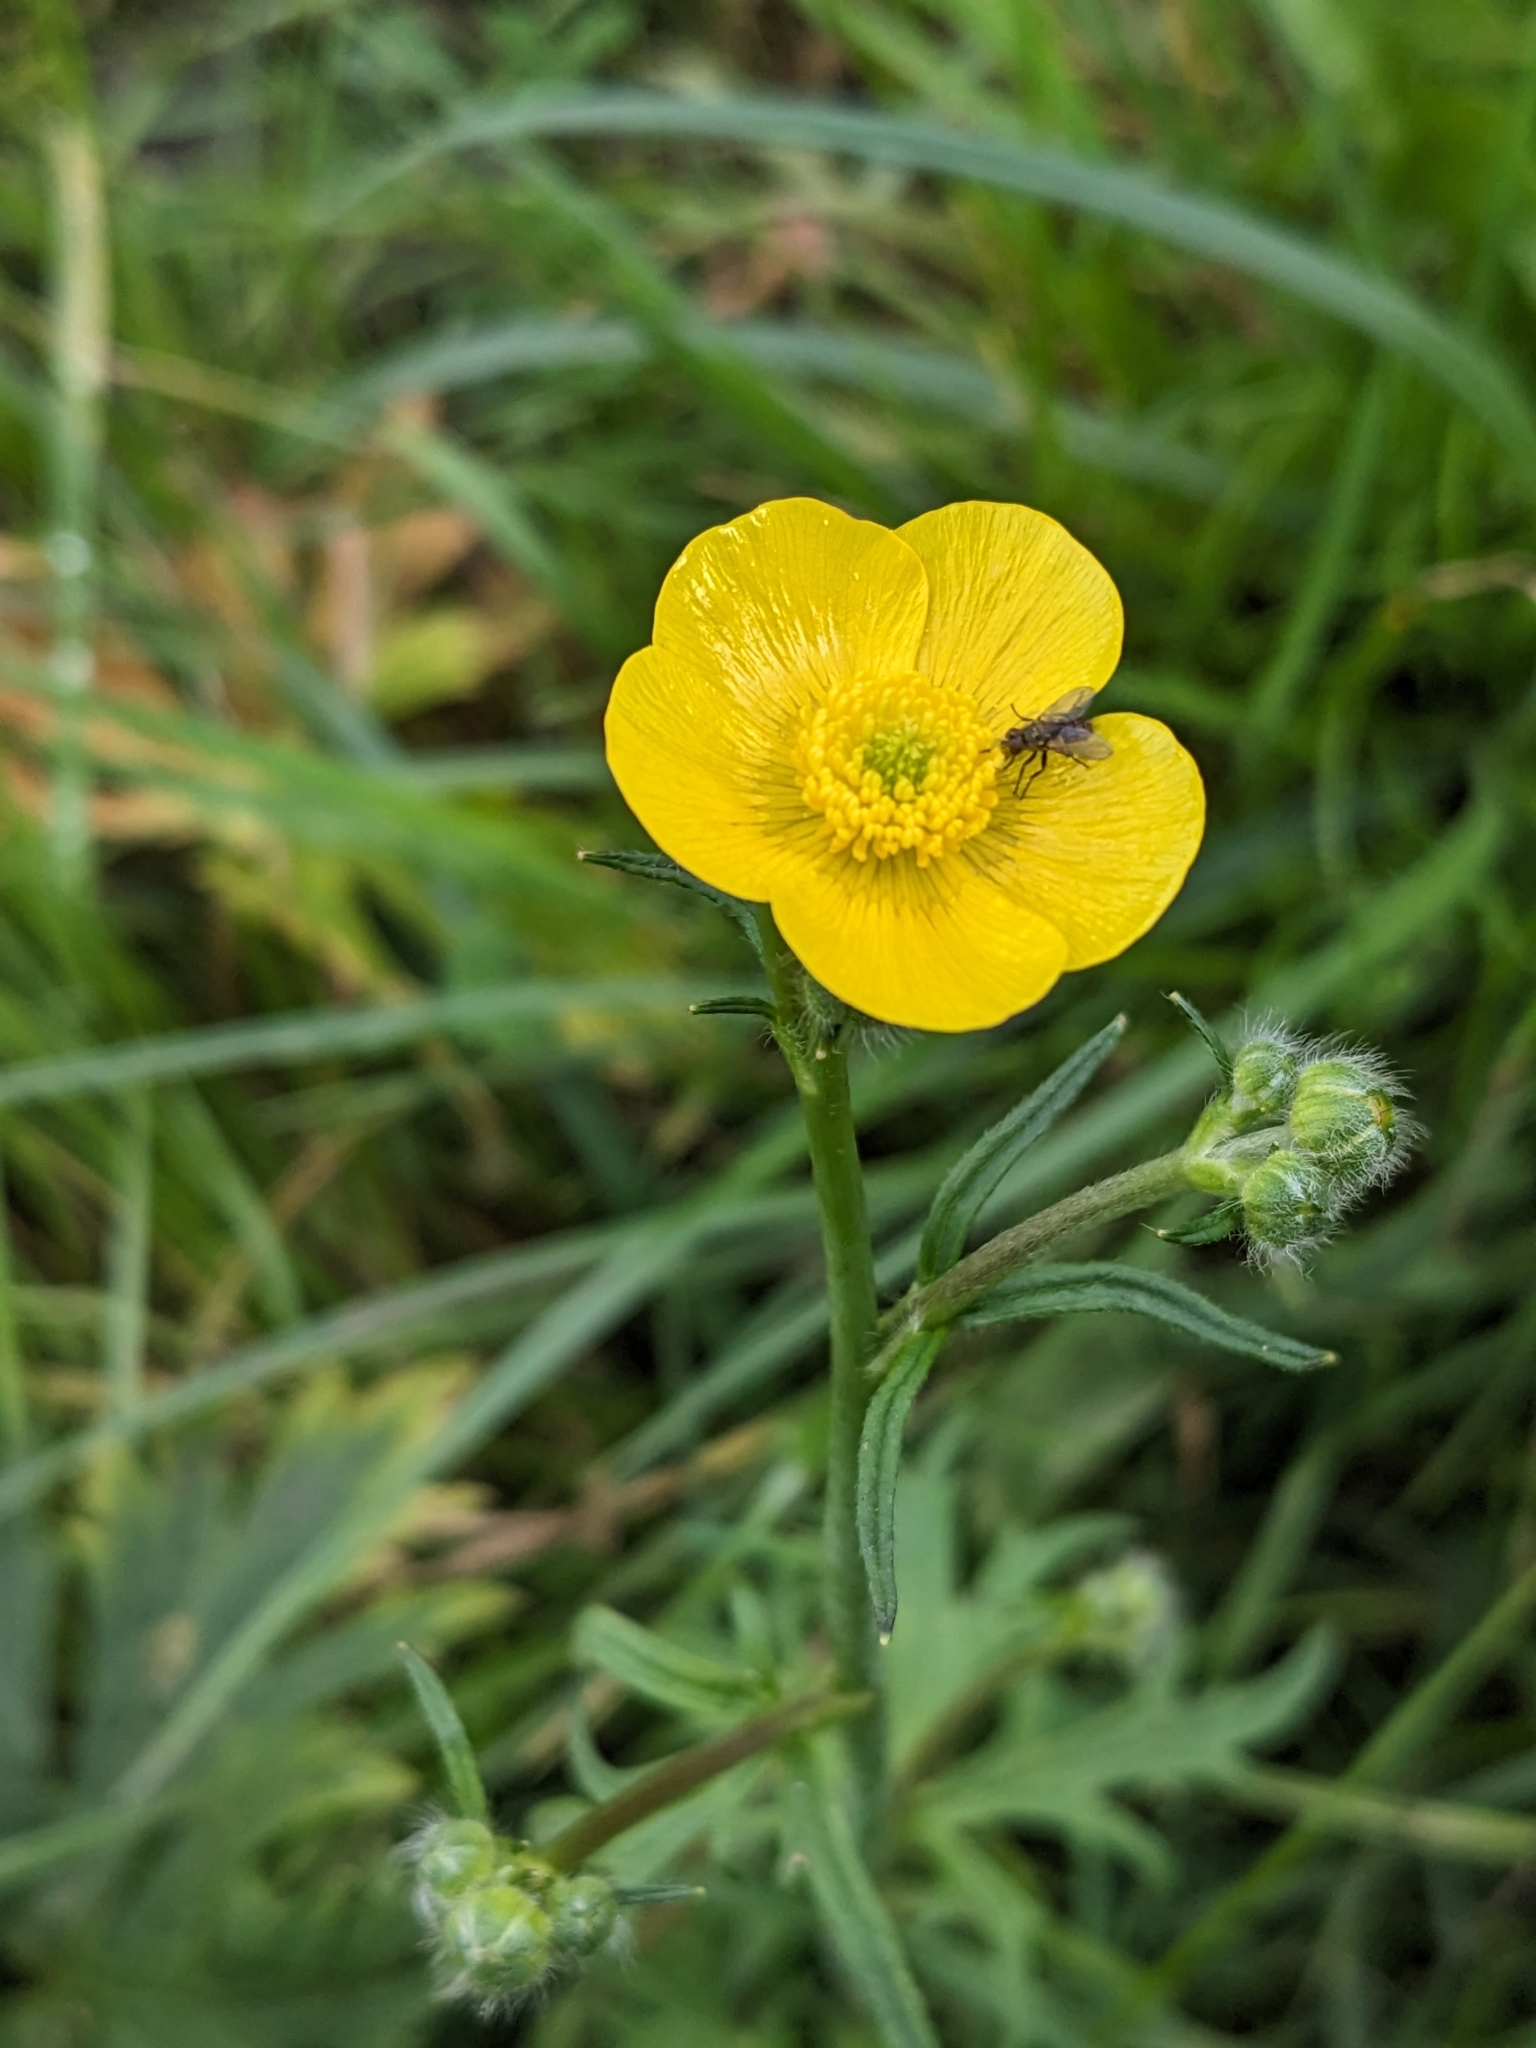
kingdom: Plantae
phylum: Tracheophyta
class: Magnoliopsida
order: Ranunculales
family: Ranunculaceae
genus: Ranunculus
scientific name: Ranunculus acris
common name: Meadow buttercup
